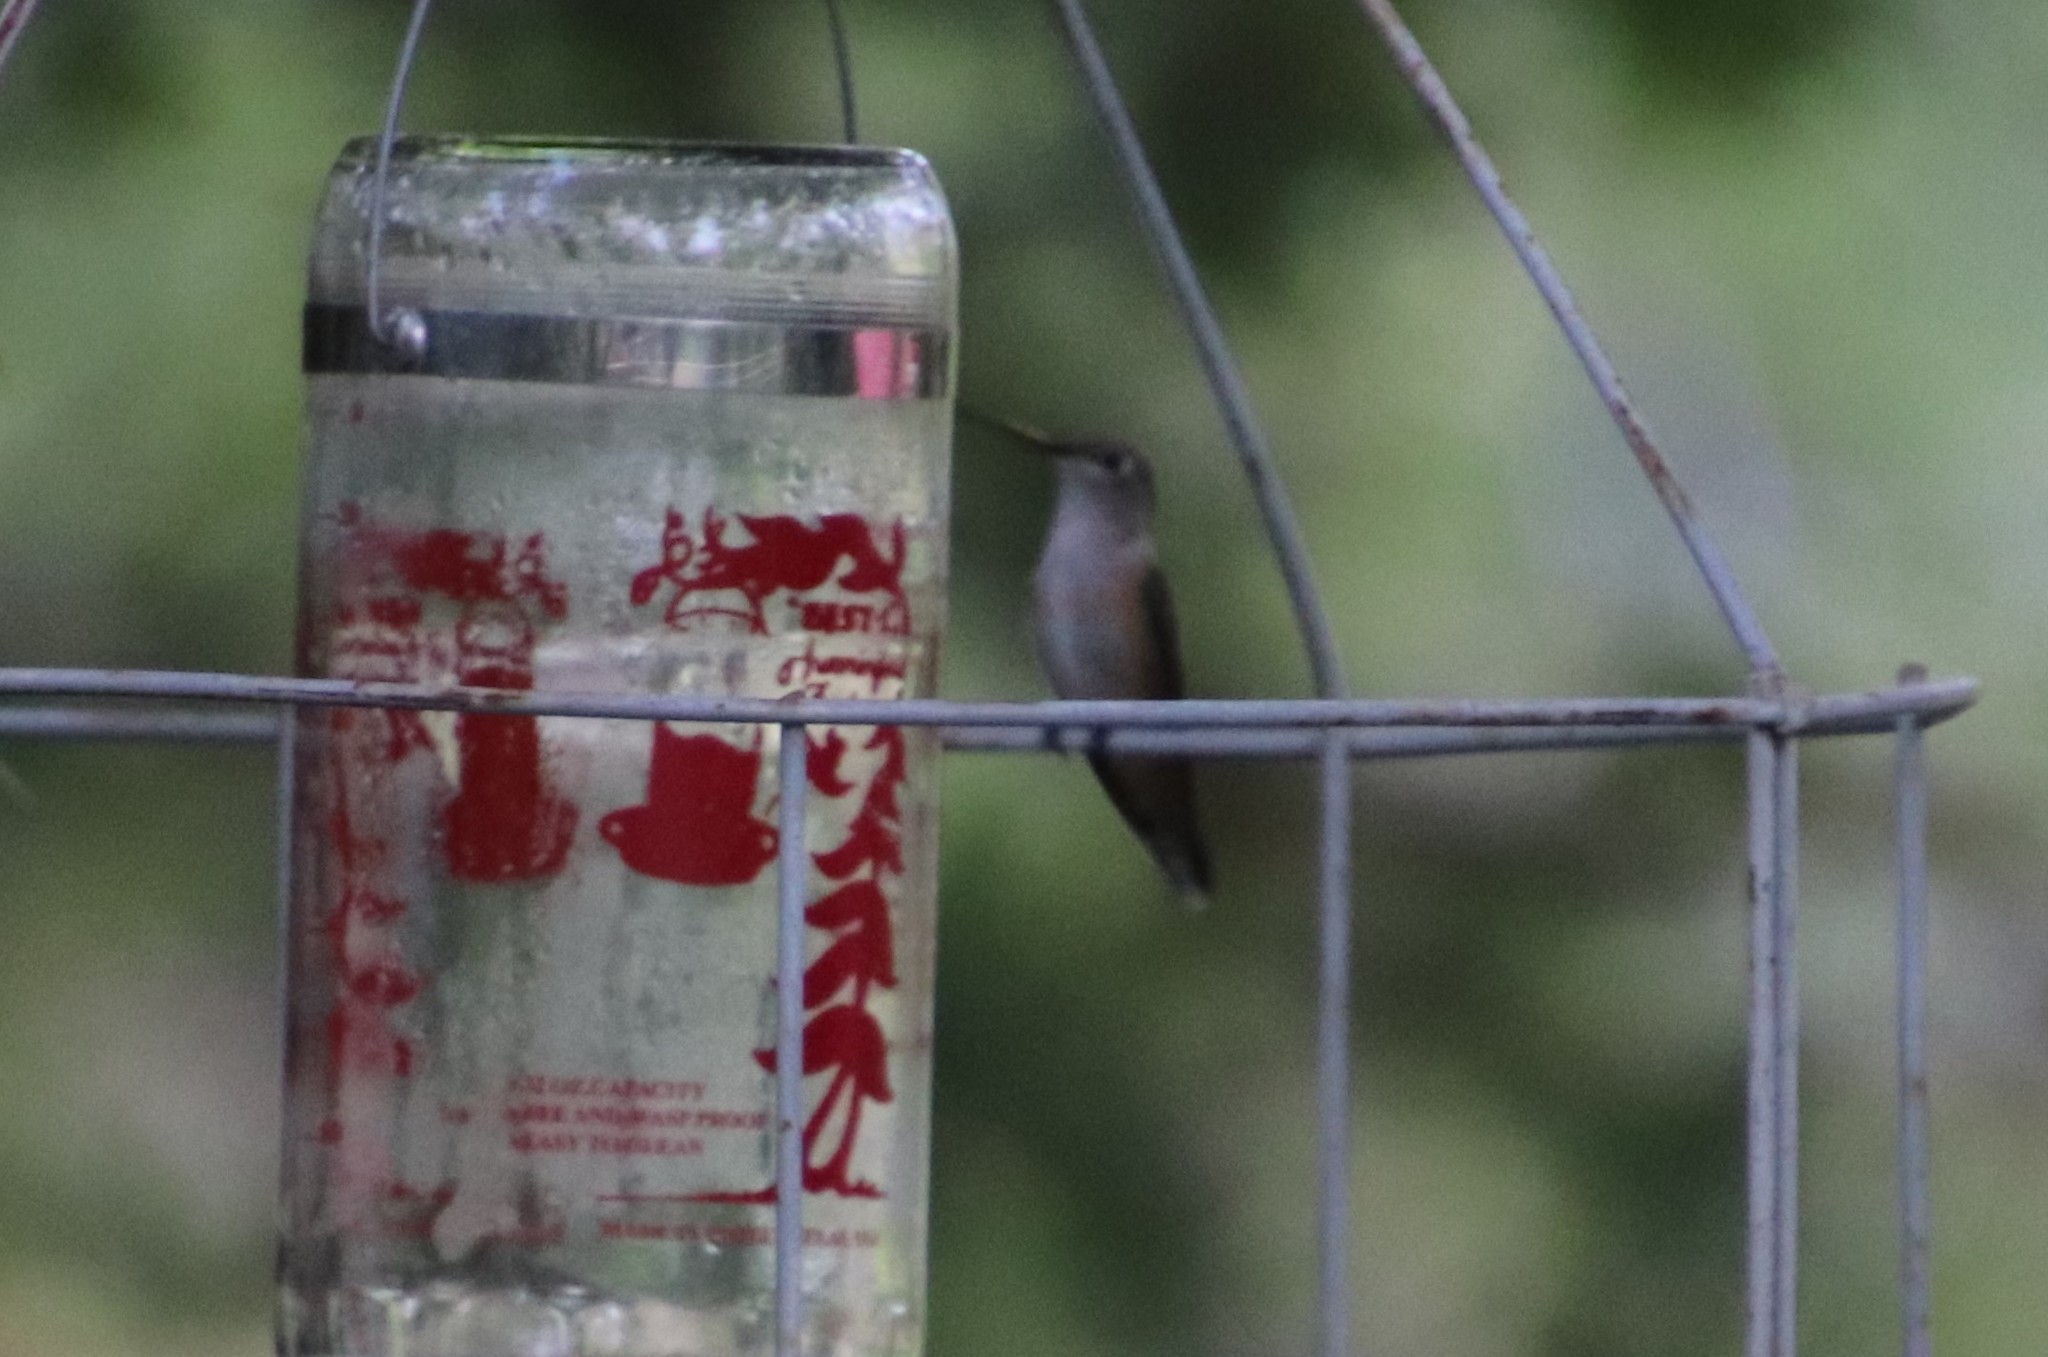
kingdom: Animalia
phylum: Chordata
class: Aves
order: Apodiformes
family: Trochilidae
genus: Selasphorus
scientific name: Selasphorus platycercus
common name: Broad-tailed hummingbird
